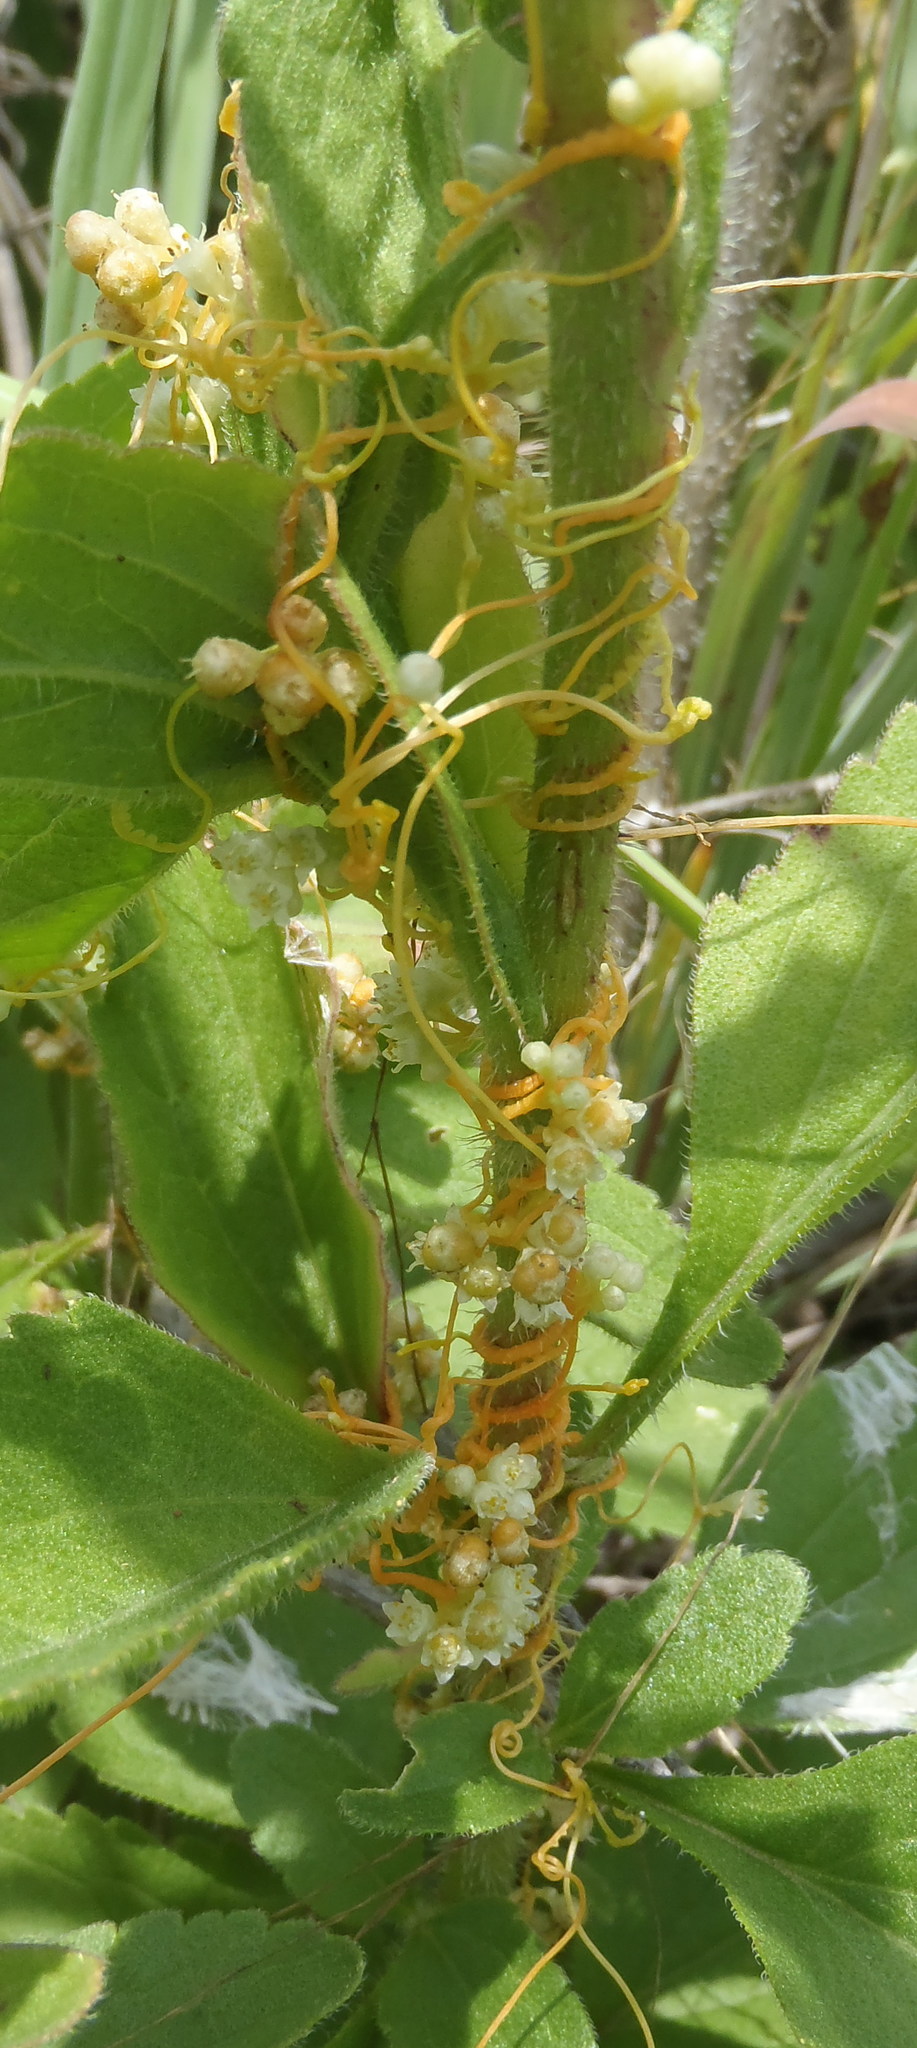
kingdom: Plantae
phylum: Tracheophyta
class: Magnoliopsida
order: Solanales
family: Convolvulaceae
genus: Cuscuta
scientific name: Cuscuta campestris
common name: Yellow dodder
